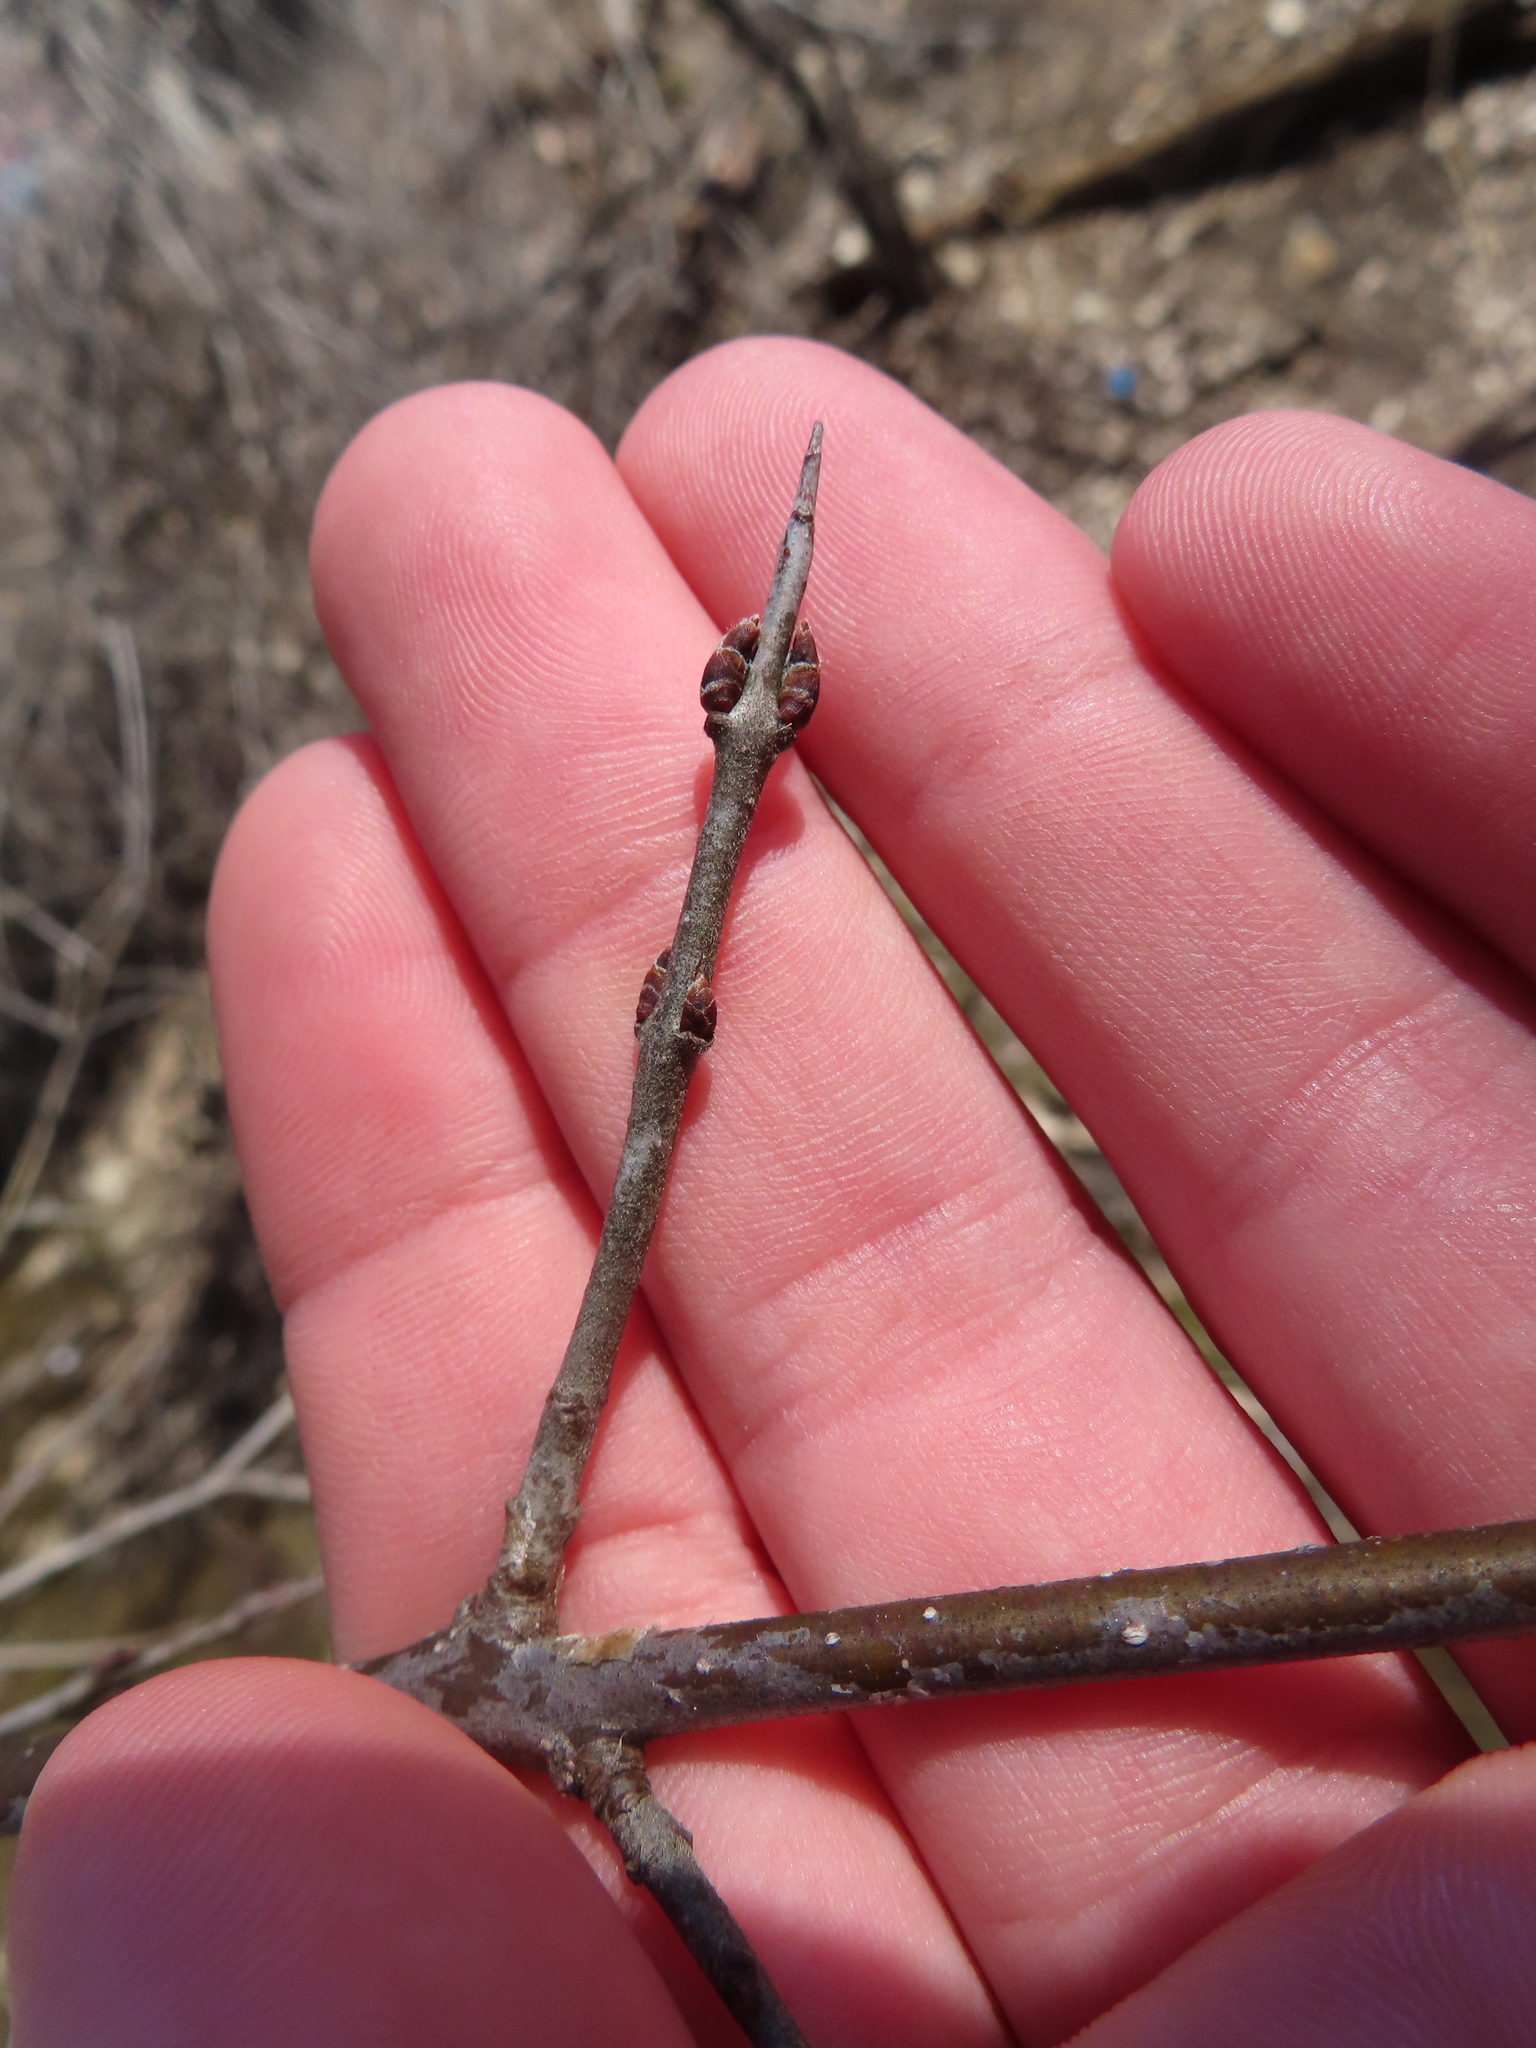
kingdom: Plantae
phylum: Tracheophyta
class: Magnoliopsida
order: Rosales
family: Rhamnaceae
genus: Rhamnus
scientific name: Rhamnus cathartica
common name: Common buckthorn
